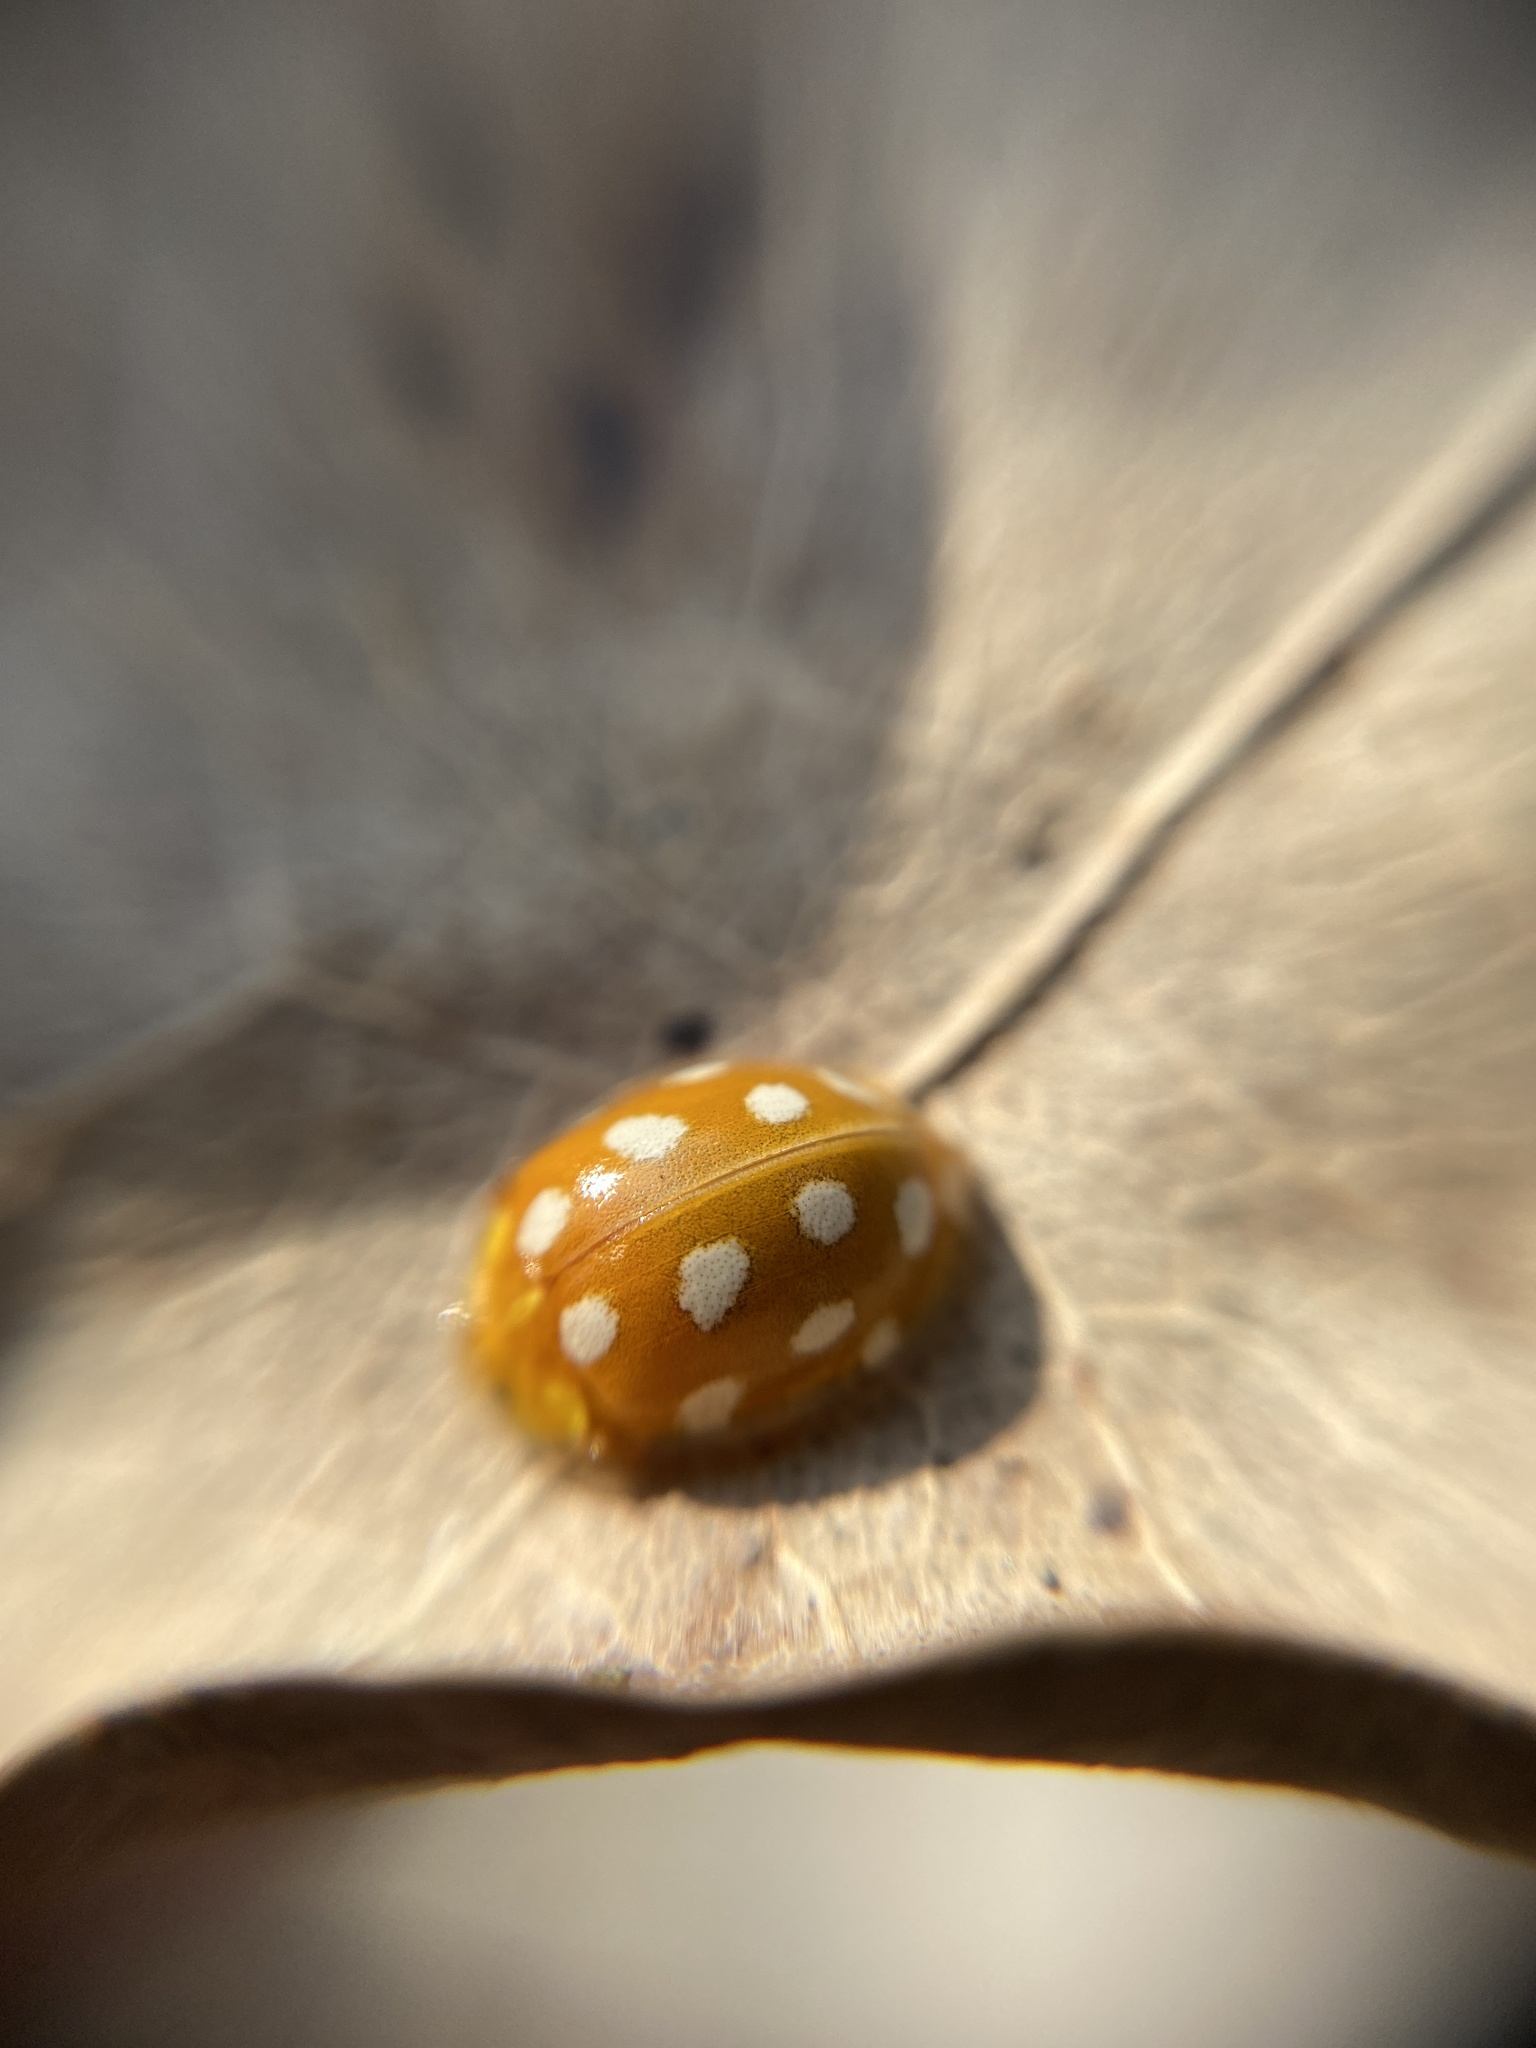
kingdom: Animalia
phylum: Arthropoda
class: Insecta
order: Coleoptera
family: Coccinellidae
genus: Halyzia
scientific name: Halyzia sedecimguttata
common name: Orange ladybird
